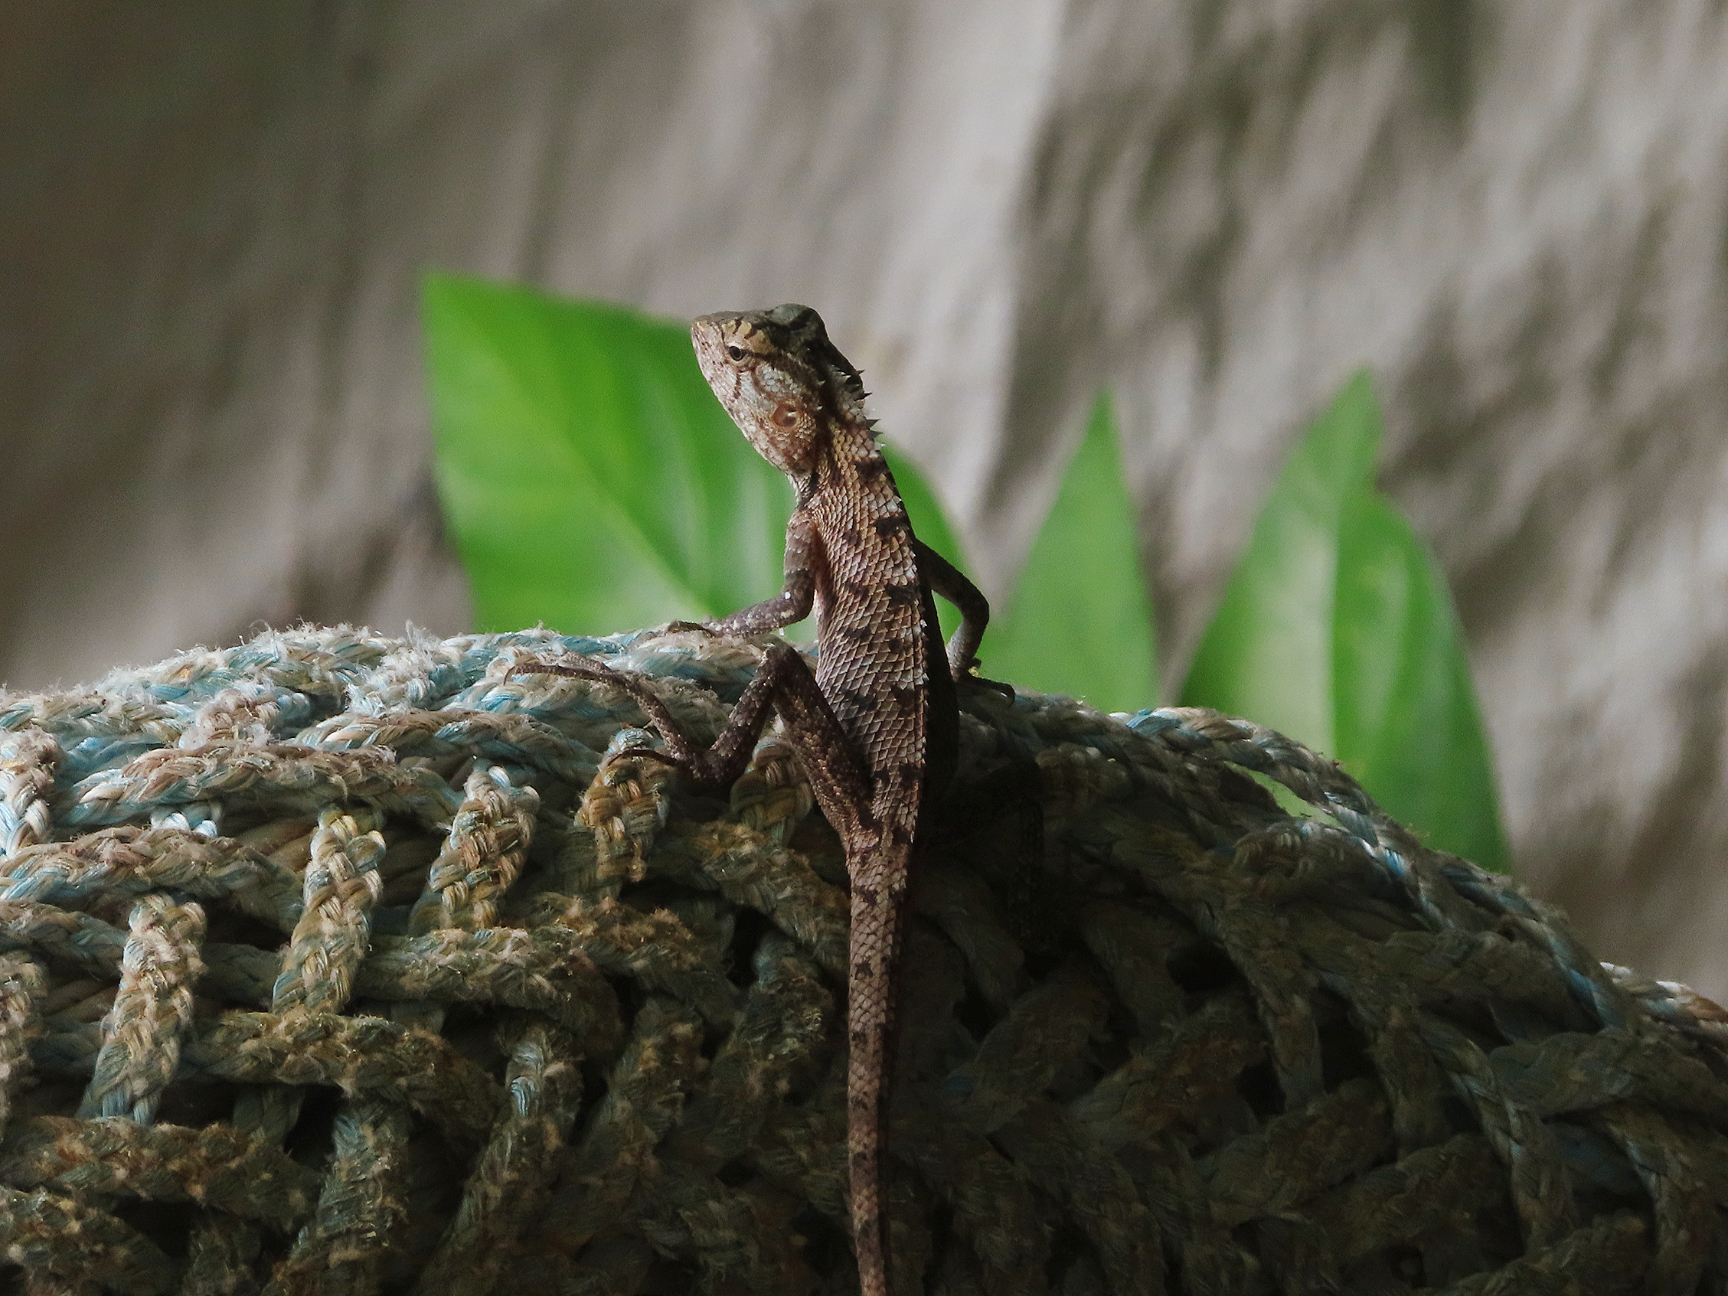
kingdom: Animalia
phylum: Chordata
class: Squamata
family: Agamidae
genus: Calotes
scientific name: Calotes versicolor
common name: Oriental garden lizard
